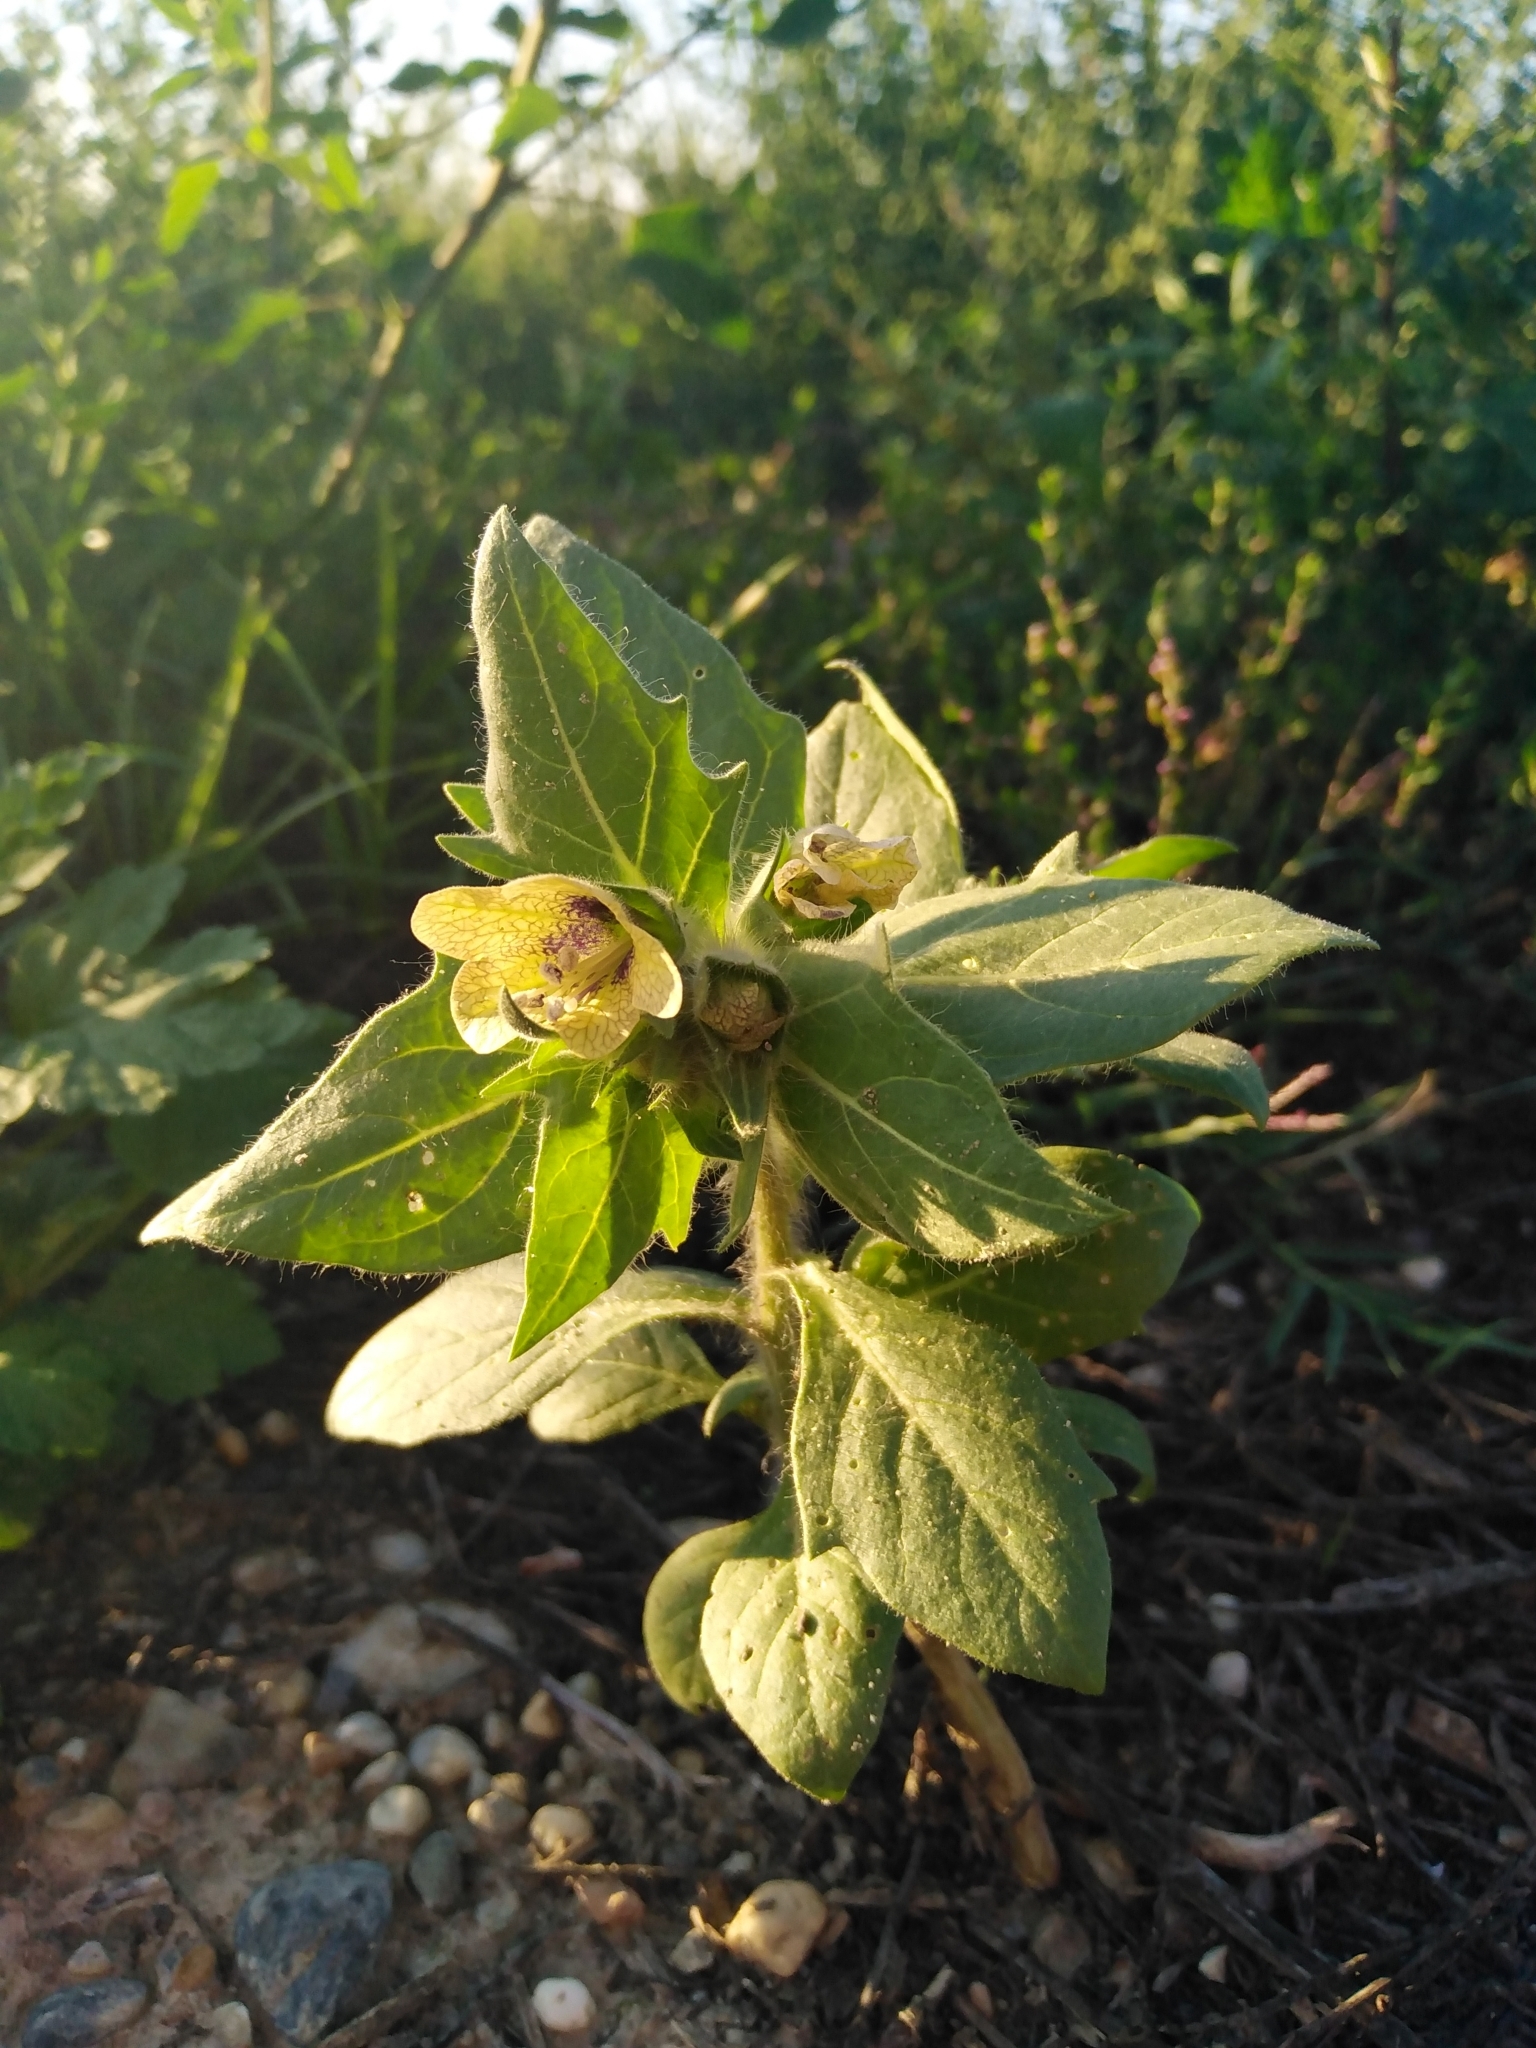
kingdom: Plantae
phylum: Tracheophyta
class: Magnoliopsida
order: Solanales
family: Solanaceae
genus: Hyoscyamus
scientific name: Hyoscyamus niger
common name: Henbane
